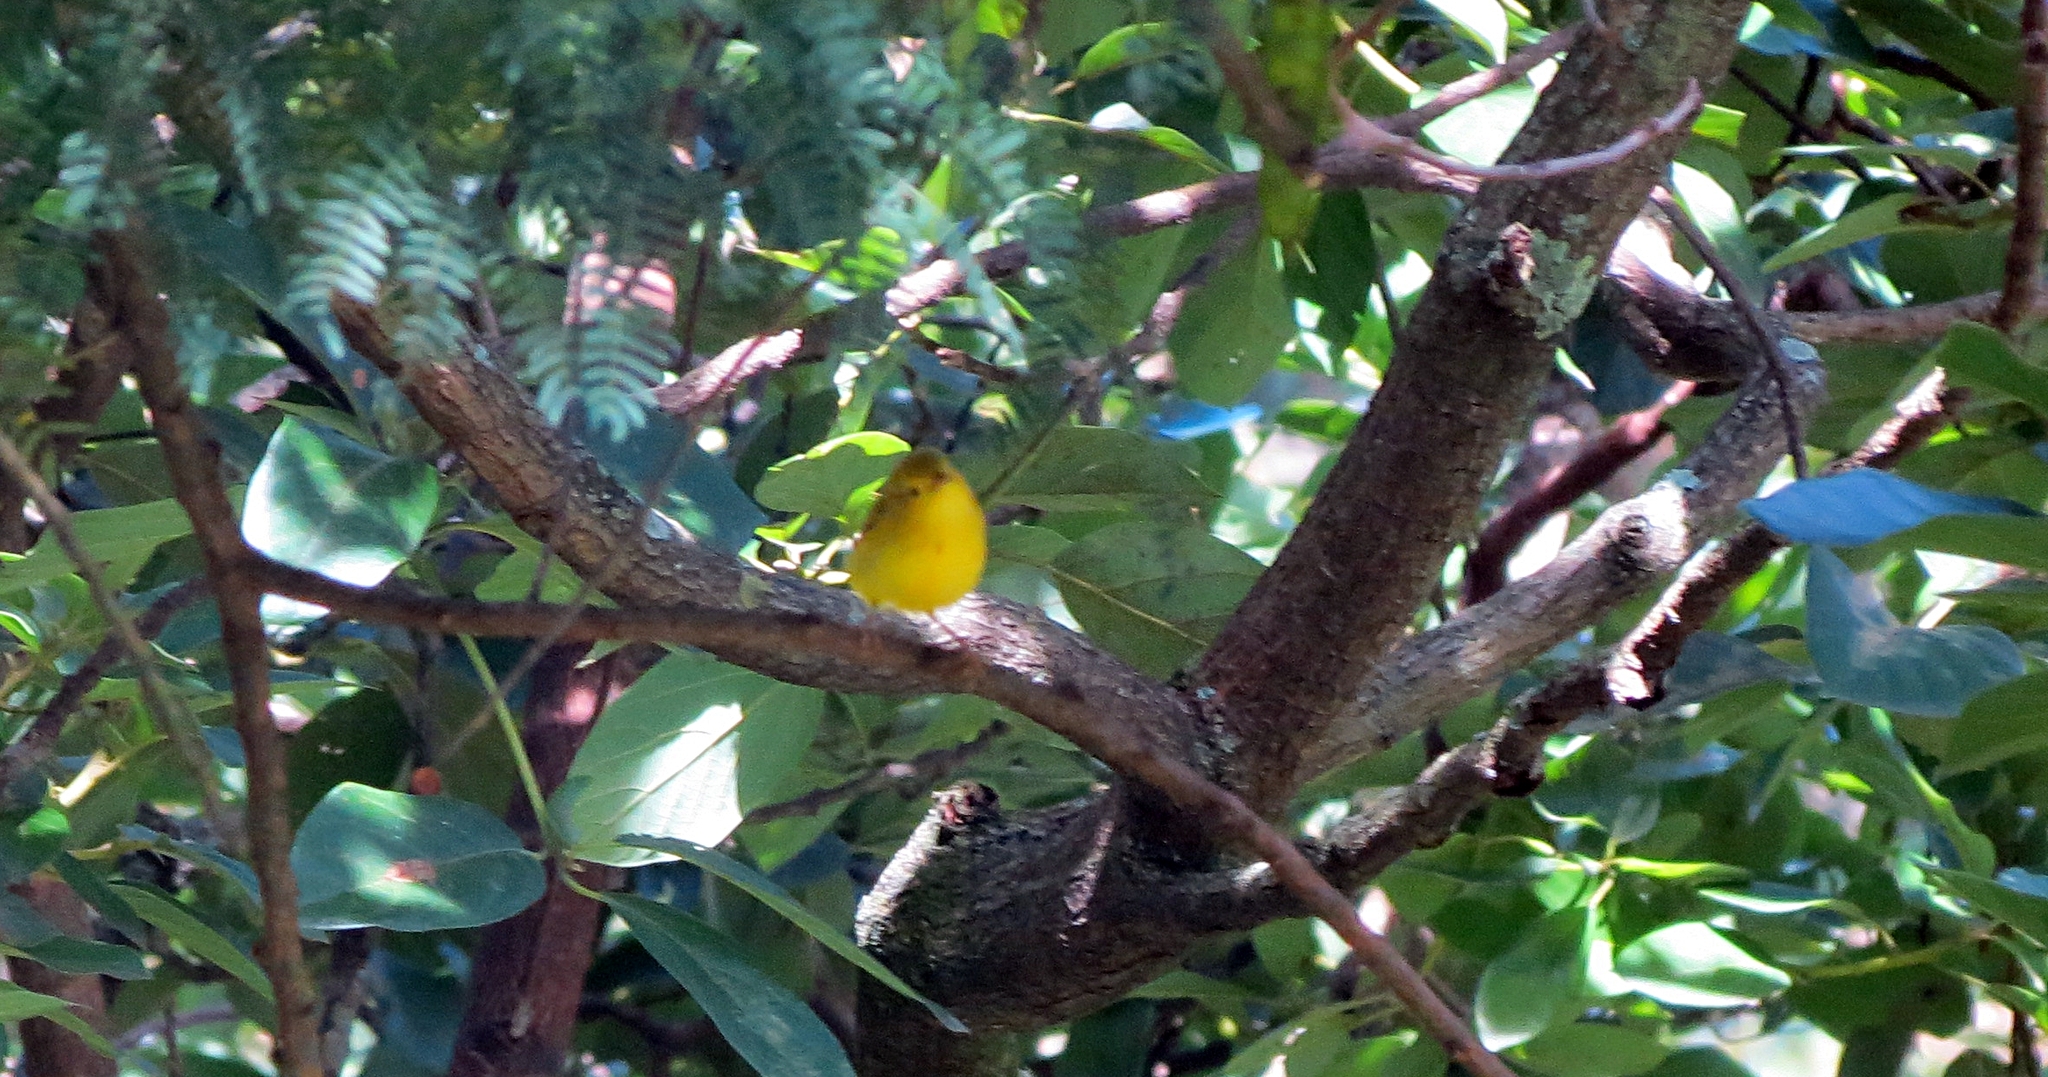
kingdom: Animalia
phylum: Chordata
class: Aves
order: Passeriformes
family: Parulidae
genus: Setophaga
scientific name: Setophaga petechia
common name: Yellow warbler
